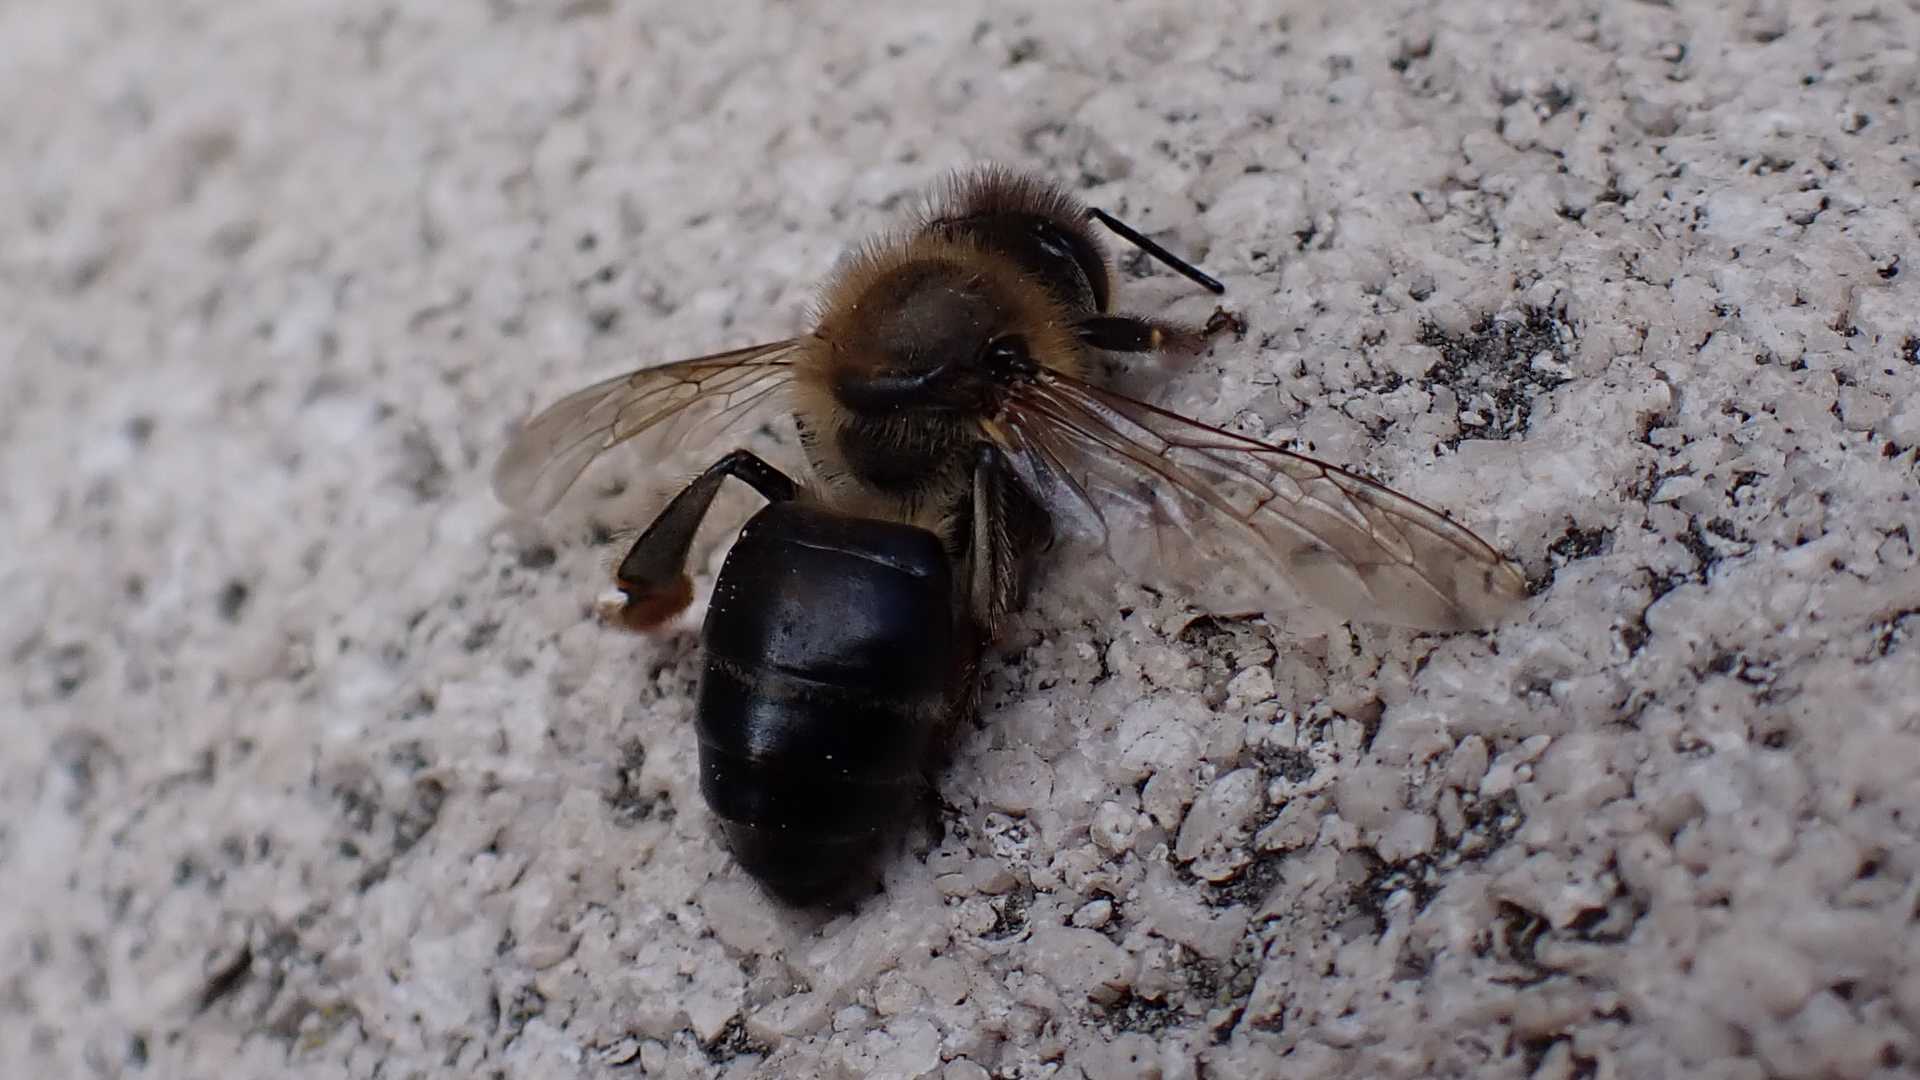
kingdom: Animalia
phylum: Arthropoda
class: Insecta
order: Hymenoptera
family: Apidae
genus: Apis
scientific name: Apis mellifera
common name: Honey bee
